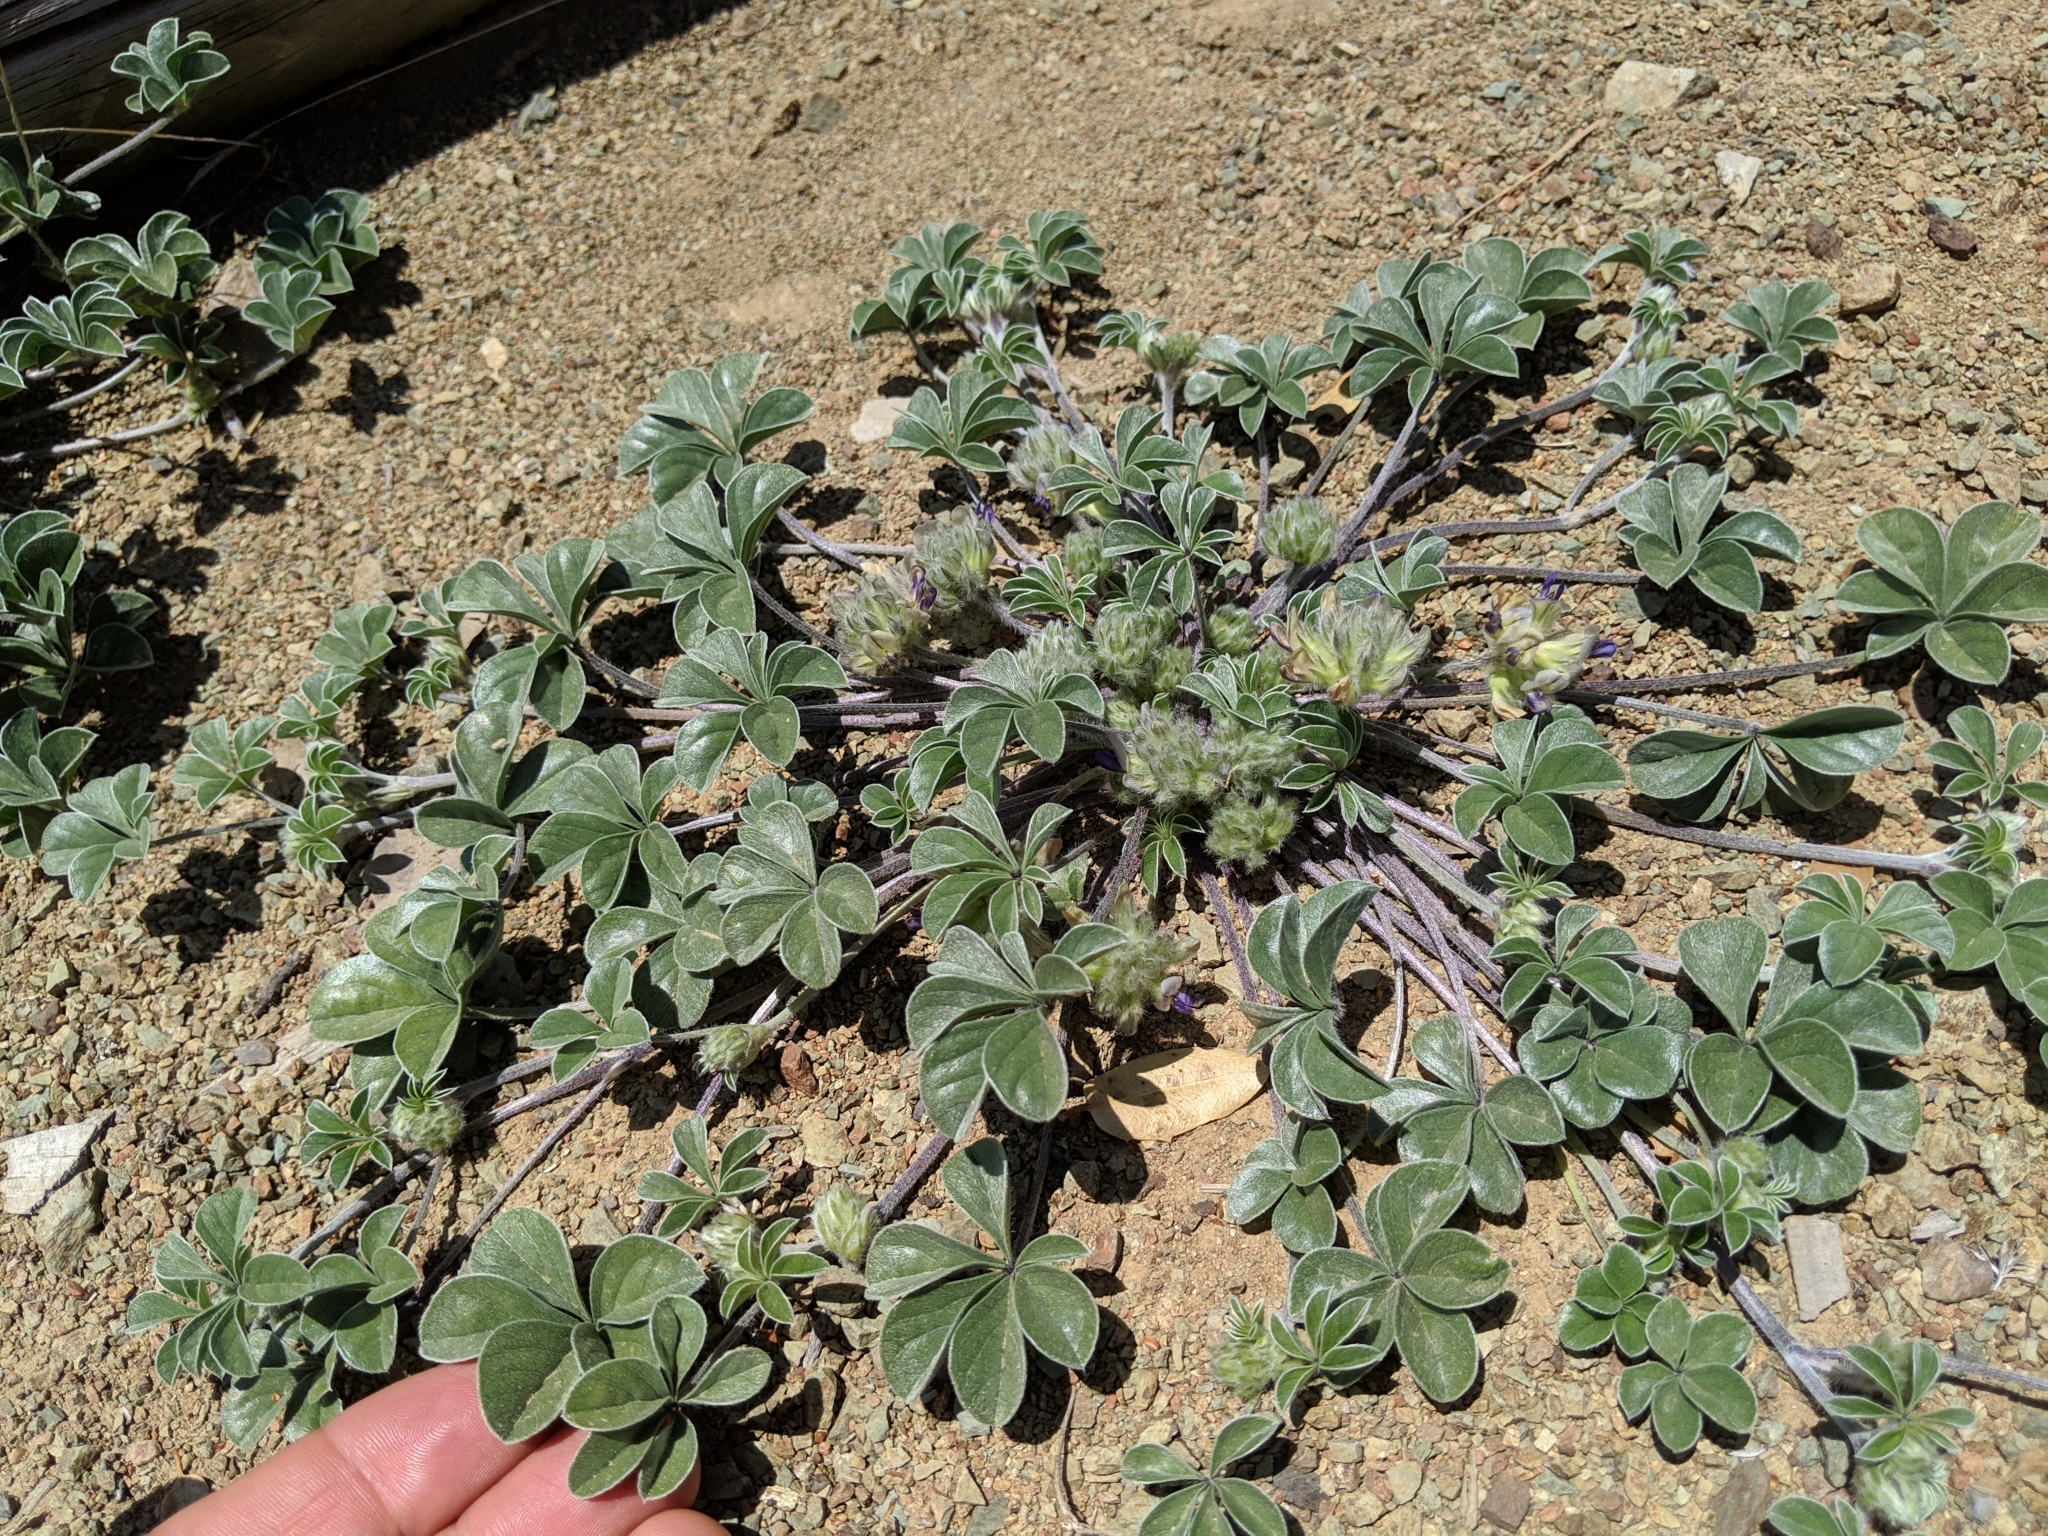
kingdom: Plantae
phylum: Tracheophyta
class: Magnoliopsida
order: Fabales
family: Fabaceae
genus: Pediomelum
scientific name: Pediomelum californicum
